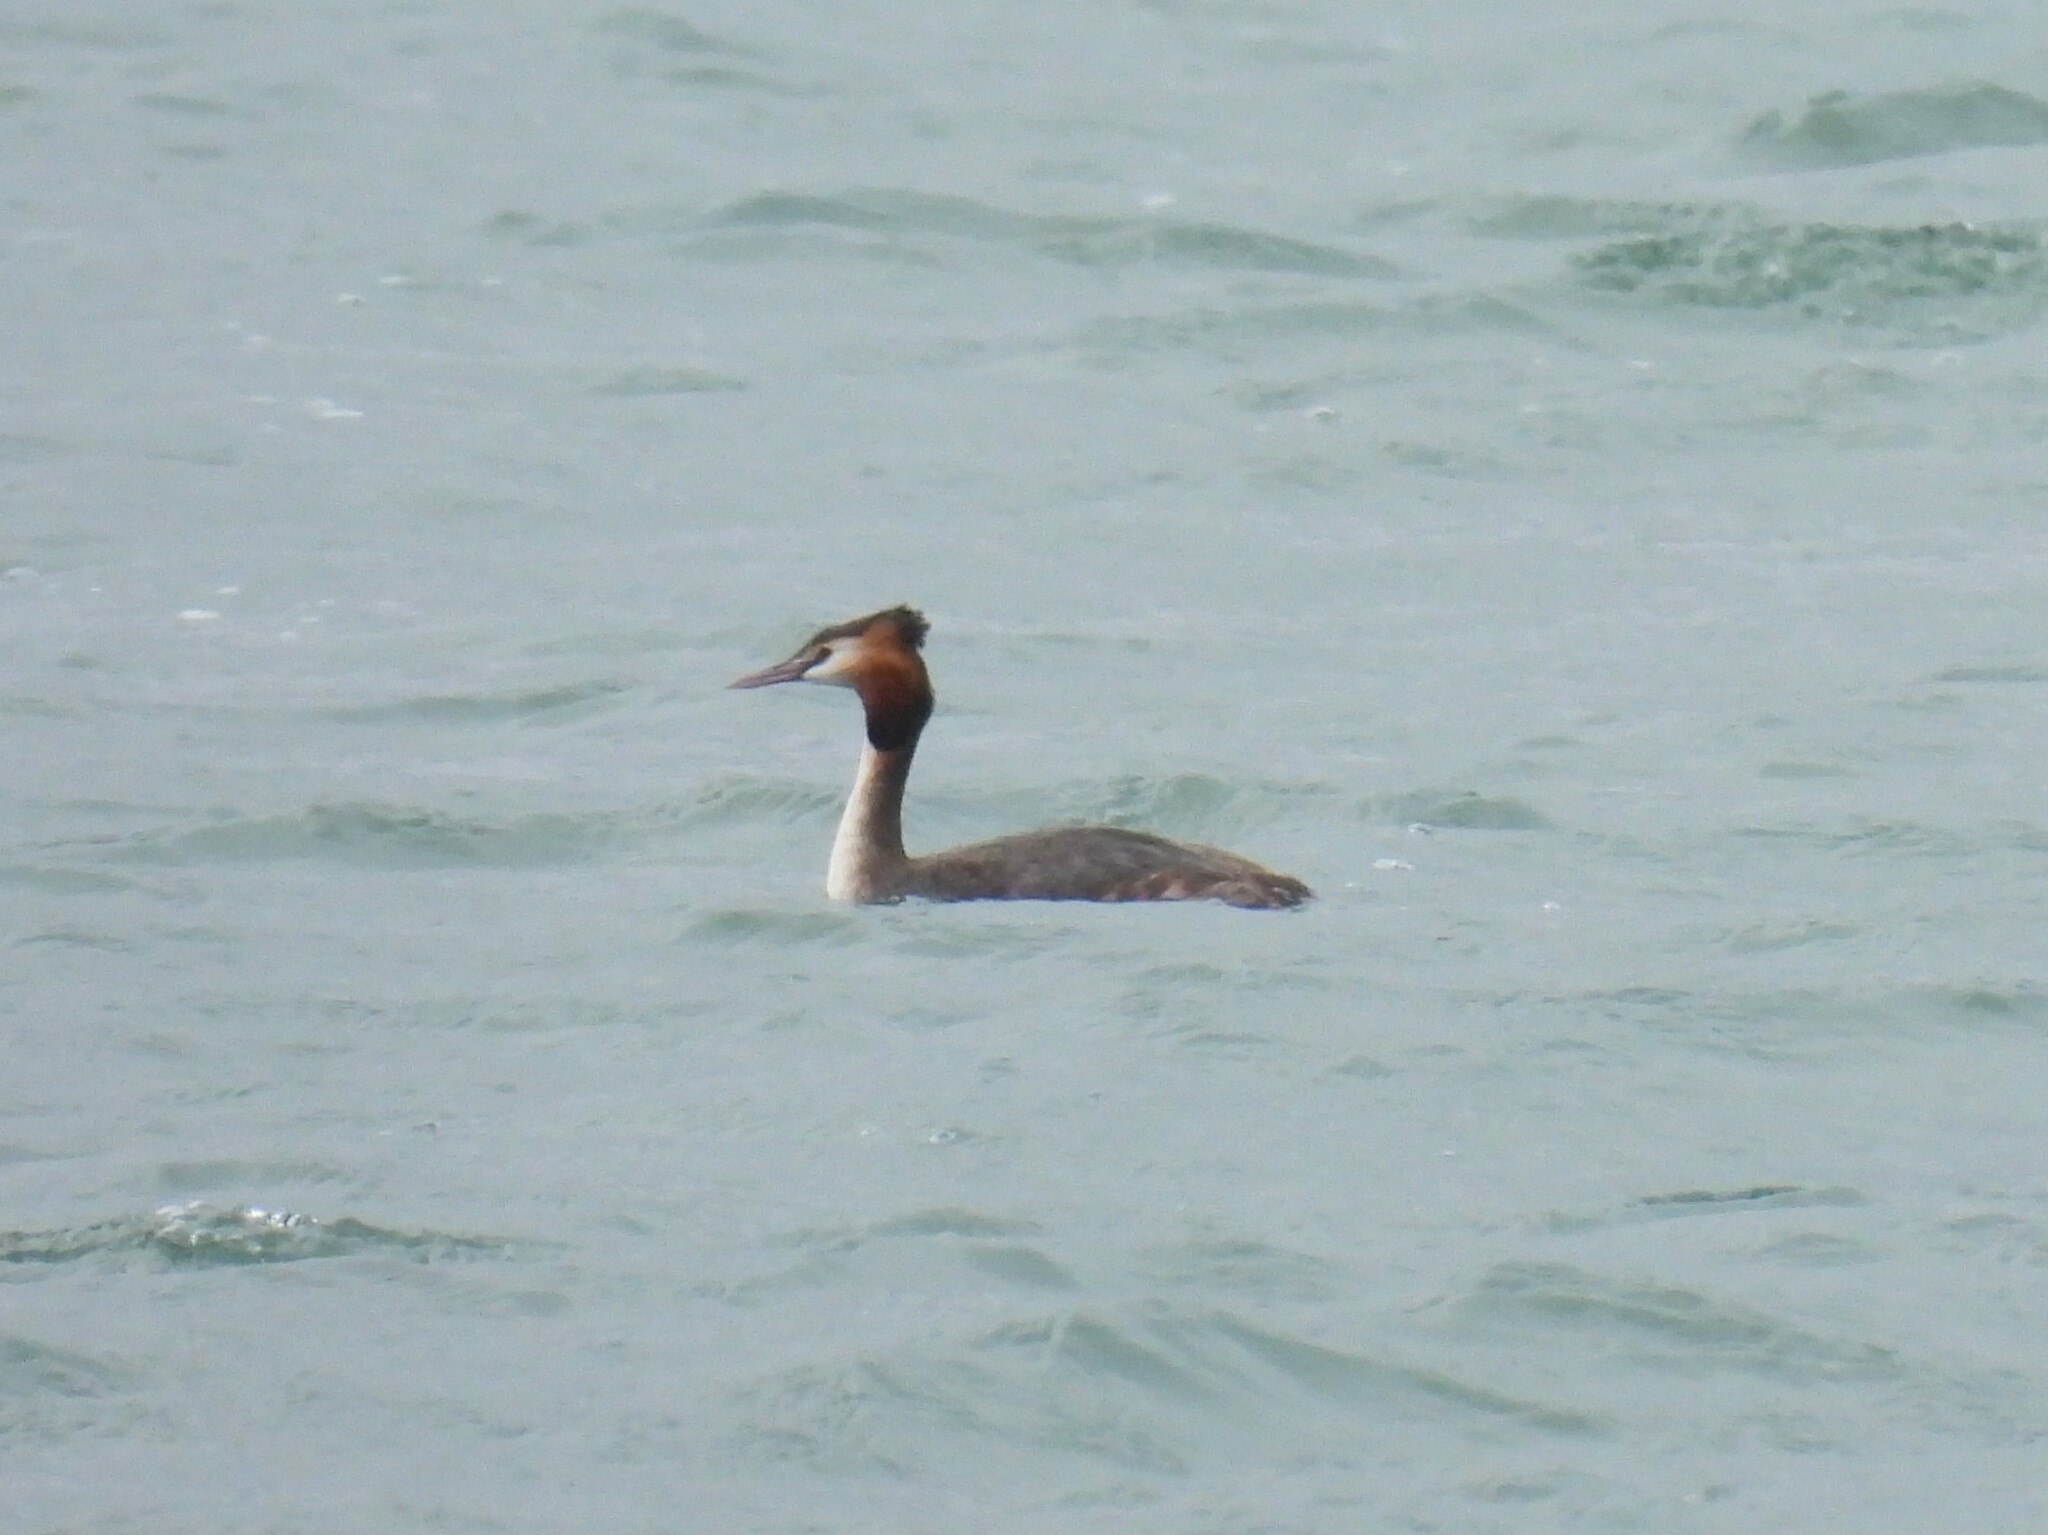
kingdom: Animalia
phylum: Chordata
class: Aves
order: Podicipediformes
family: Podicipedidae
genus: Podiceps
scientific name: Podiceps cristatus
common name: Great crested grebe
